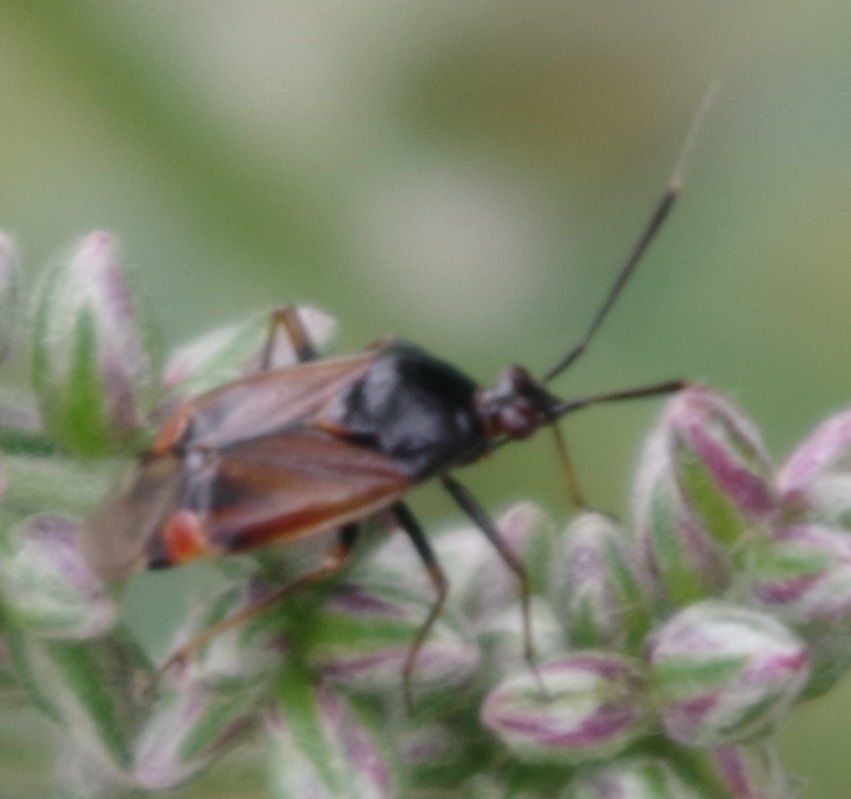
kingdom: Animalia
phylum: Arthropoda
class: Insecta
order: Hemiptera
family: Miridae
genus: Deraeocoris
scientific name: Deraeocoris ruber
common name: Plant bug
